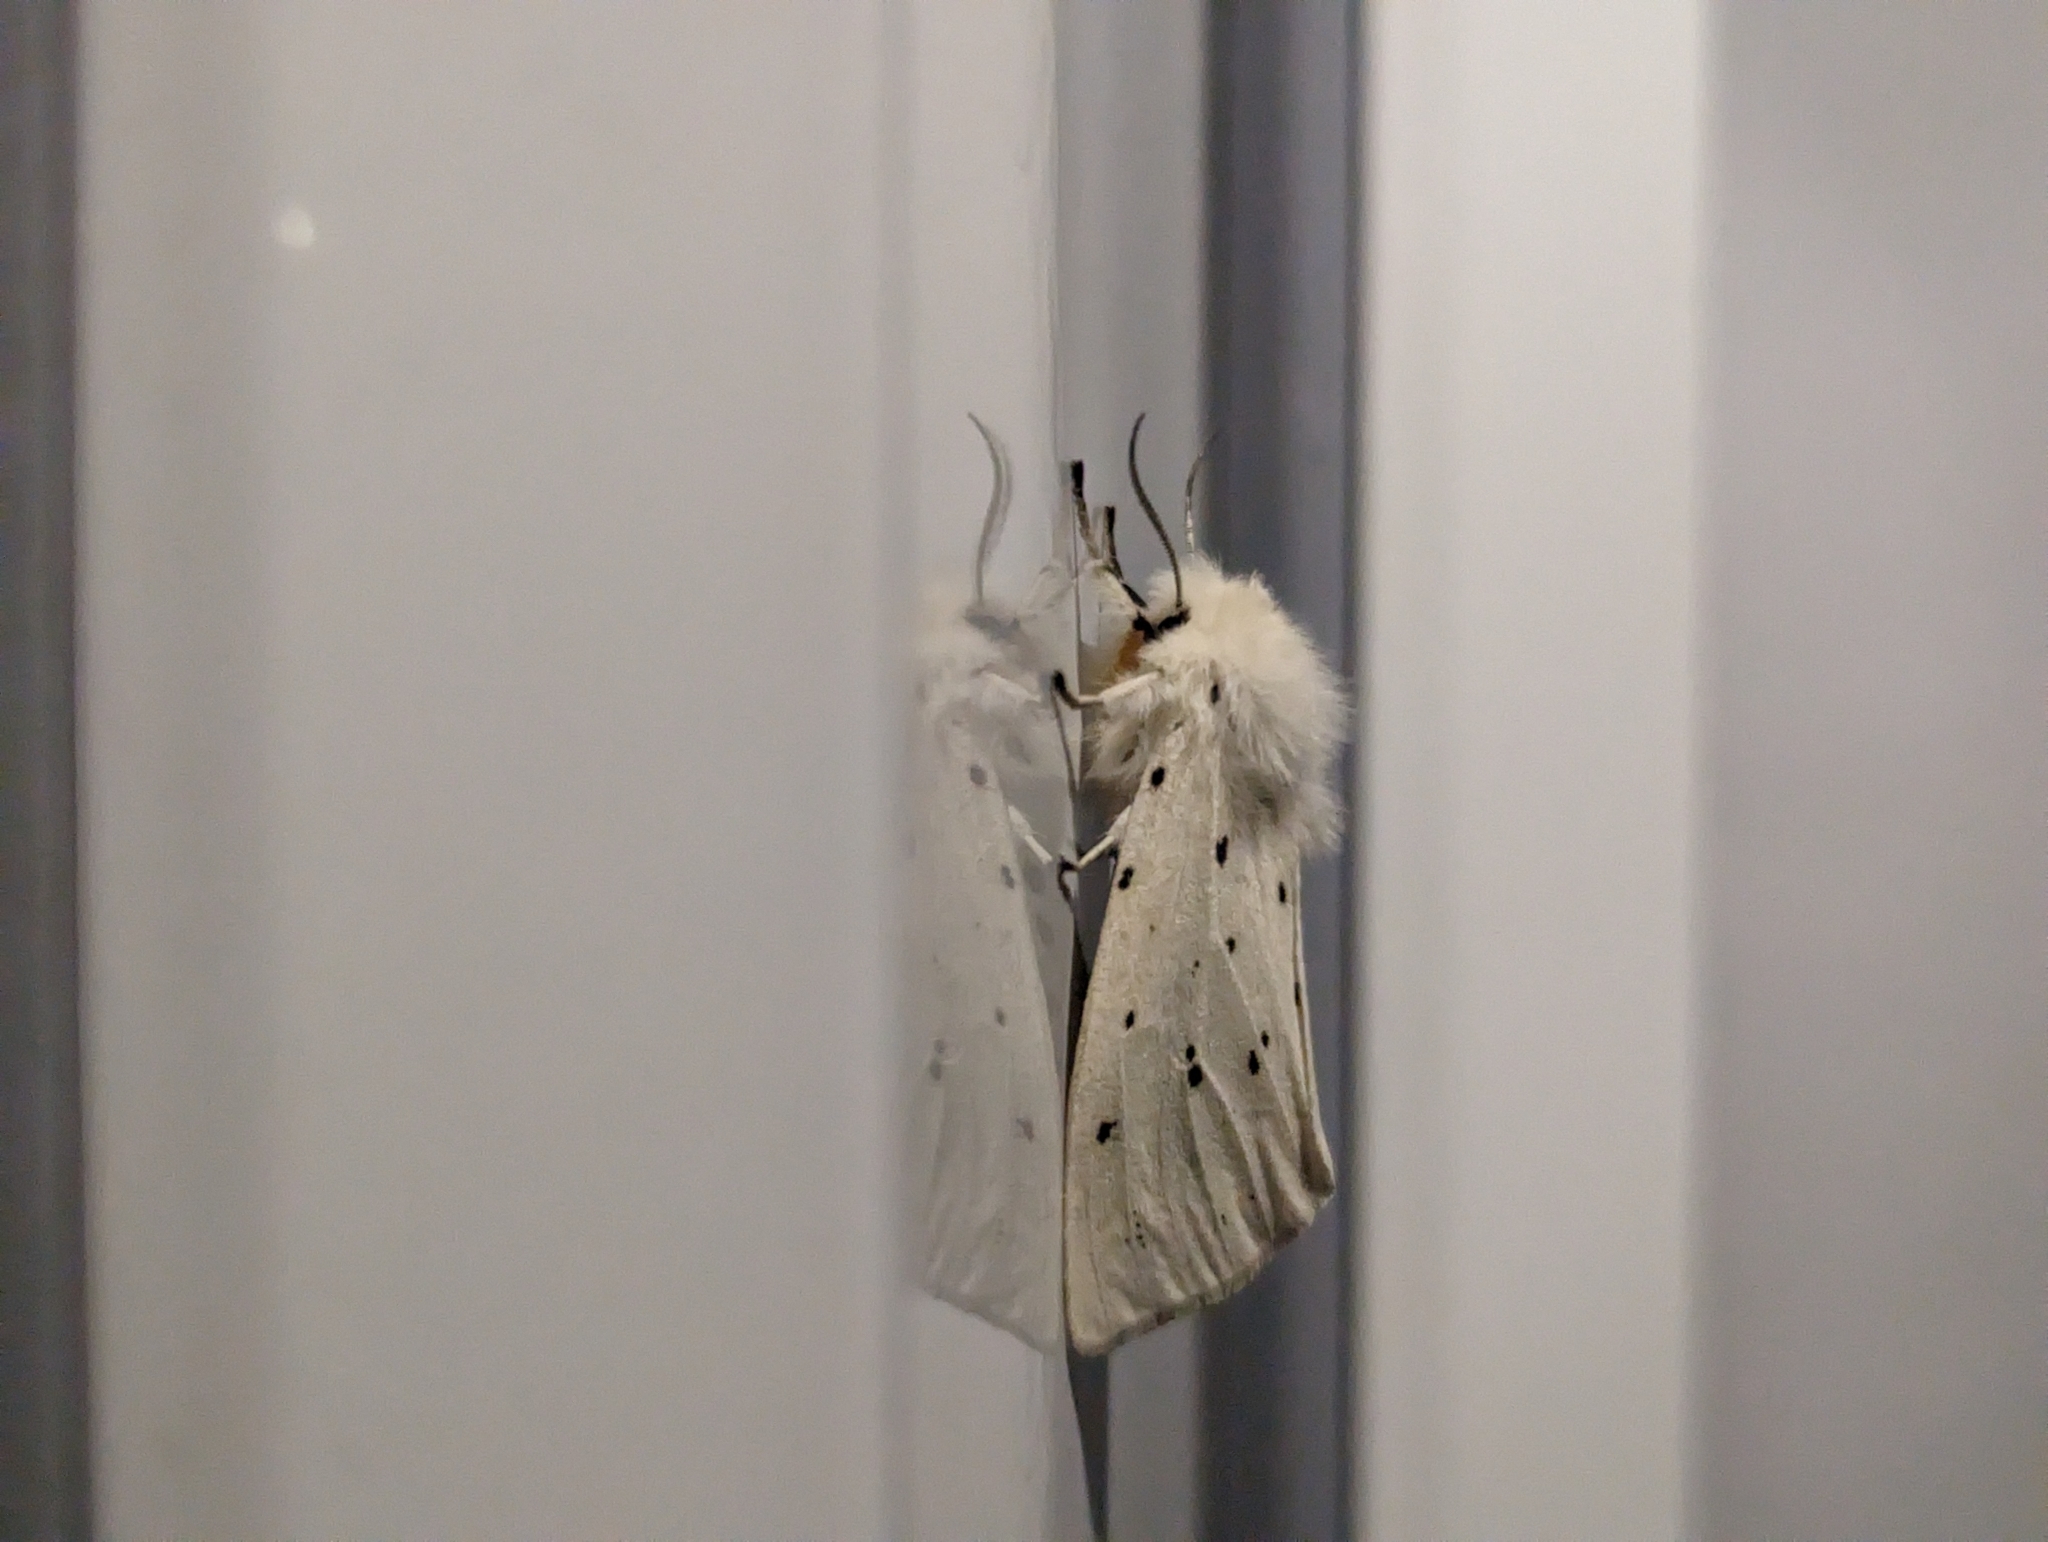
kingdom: Animalia
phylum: Arthropoda
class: Insecta
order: Lepidoptera
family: Erebidae
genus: Spilosoma
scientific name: Spilosoma lubricipeda
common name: White ermine
